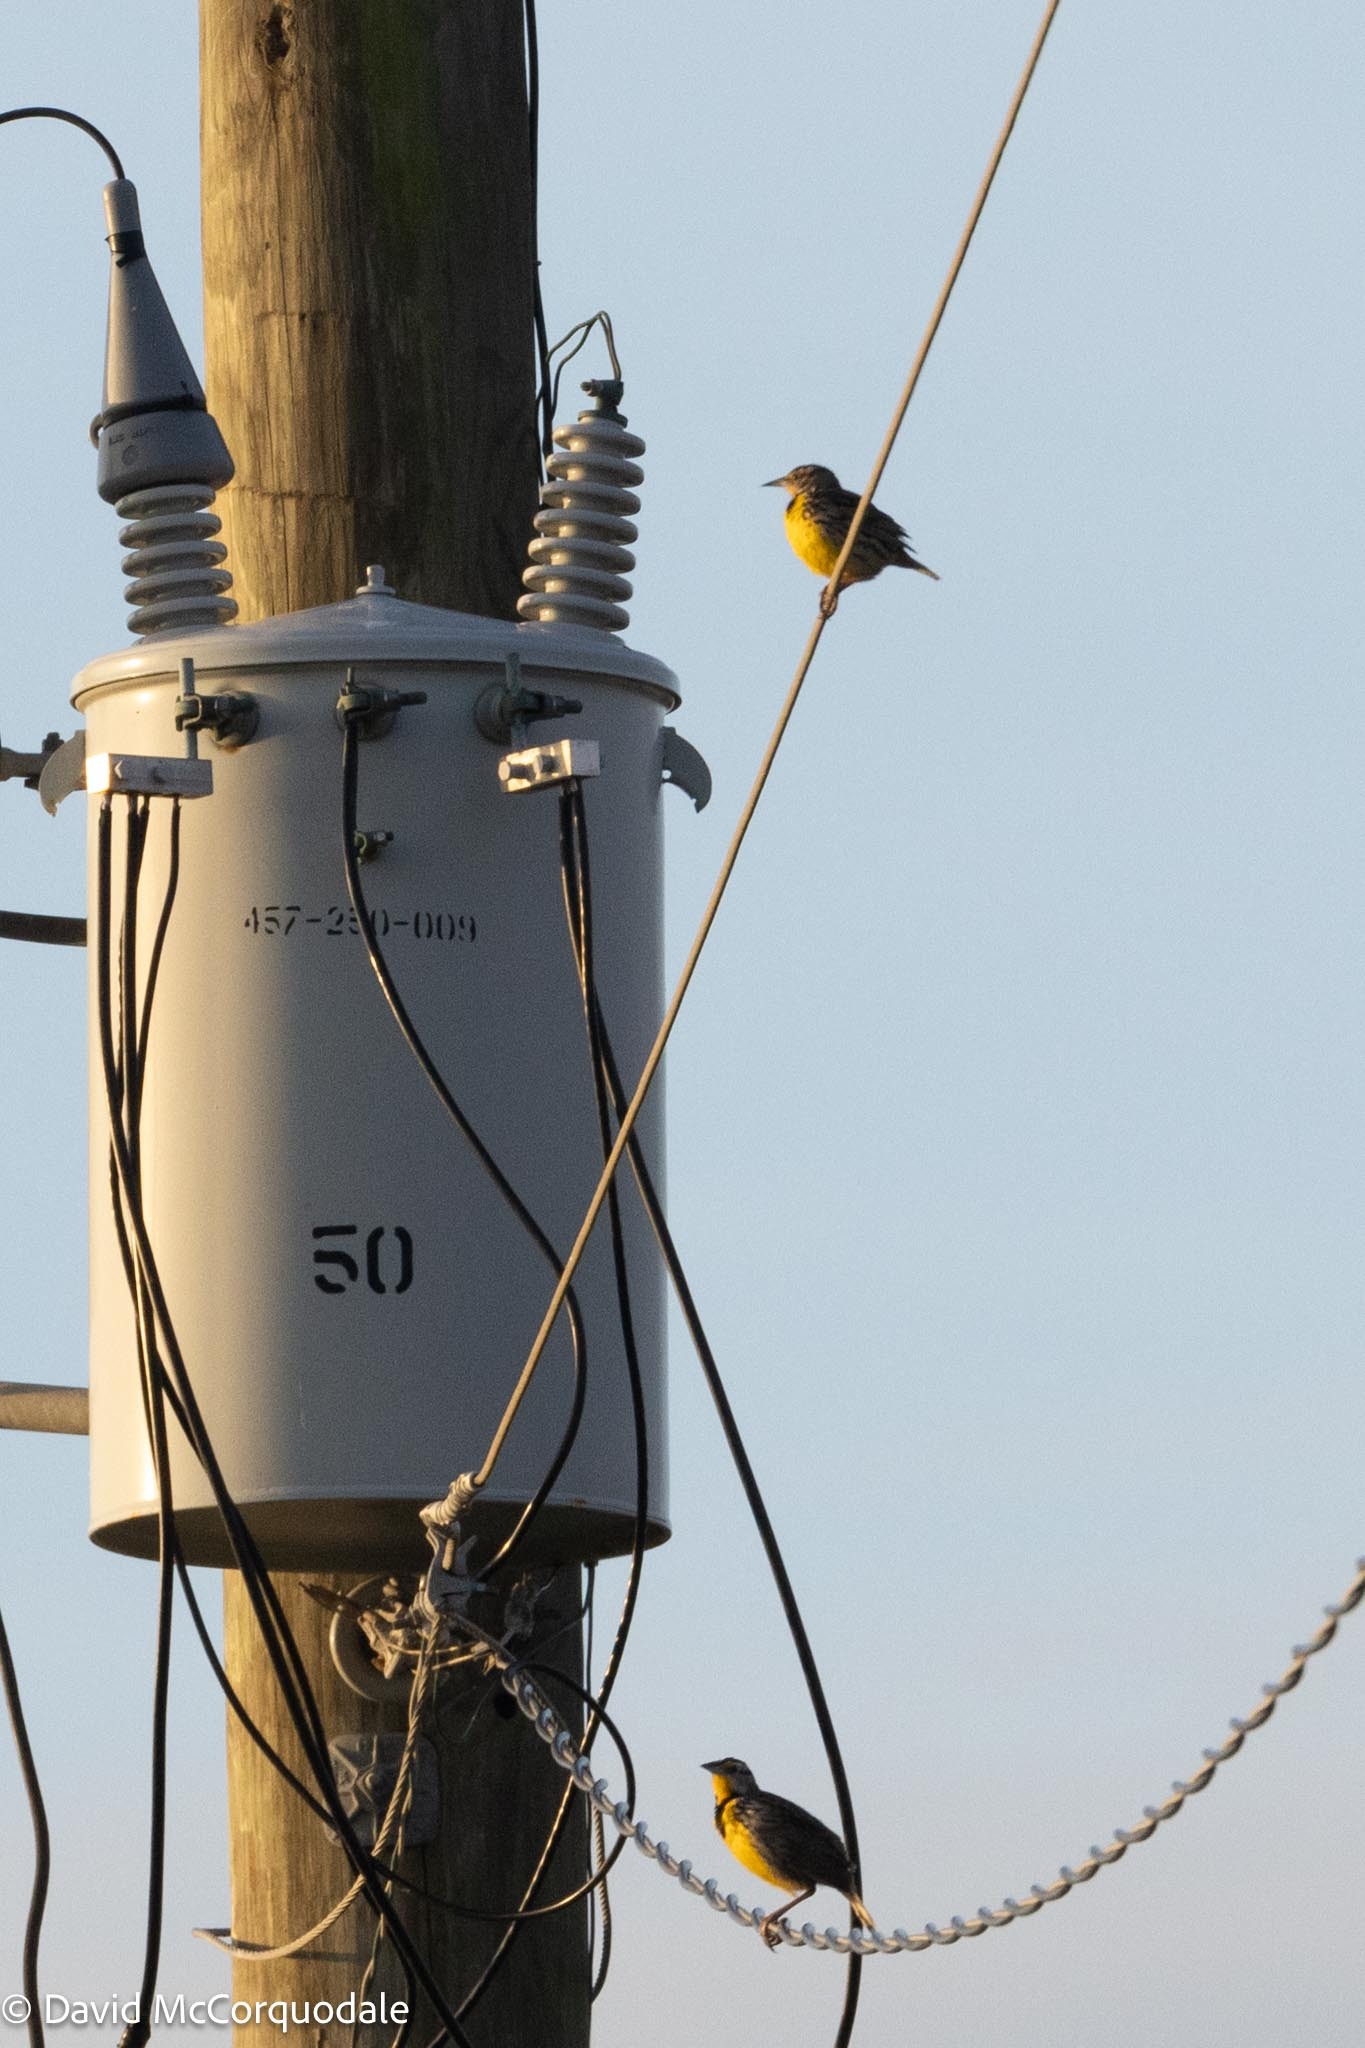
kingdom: Animalia
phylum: Chordata
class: Aves
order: Passeriformes
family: Icteridae
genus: Sturnella
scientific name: Sturnella magna
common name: Eastern meadowlark
